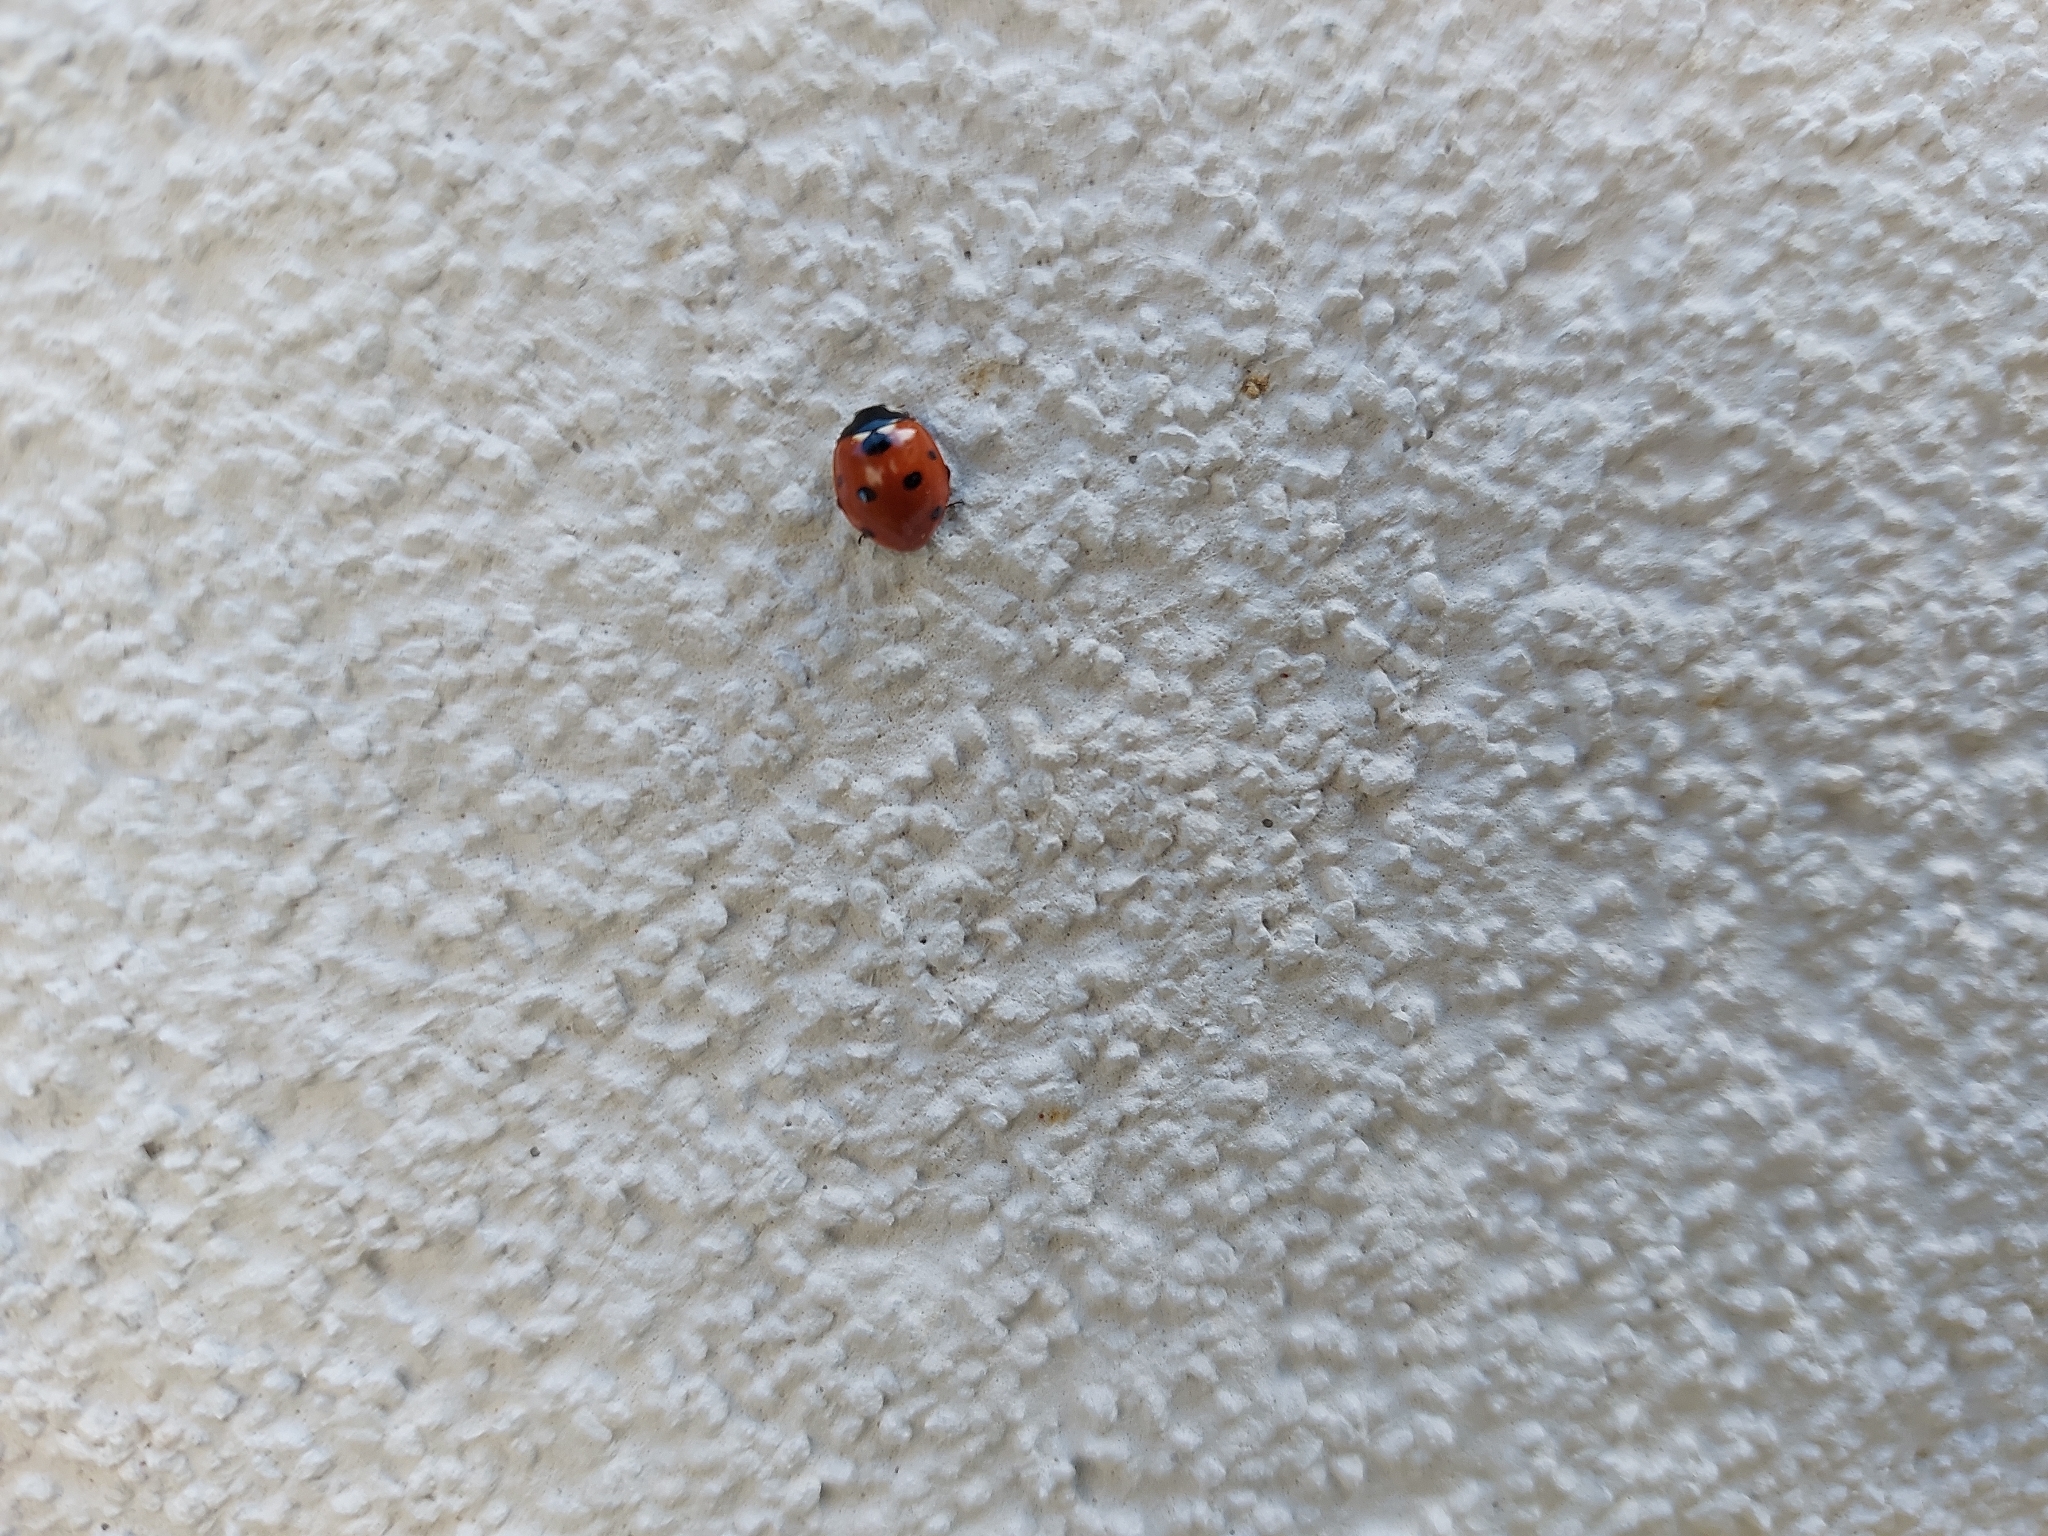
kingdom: Animalia
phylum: Arthropoda
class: Insecta
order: Coleoptera
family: Coccinellidae
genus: Coccinella
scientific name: Coccinella septempunctata
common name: Sevenspotted lady beetle
